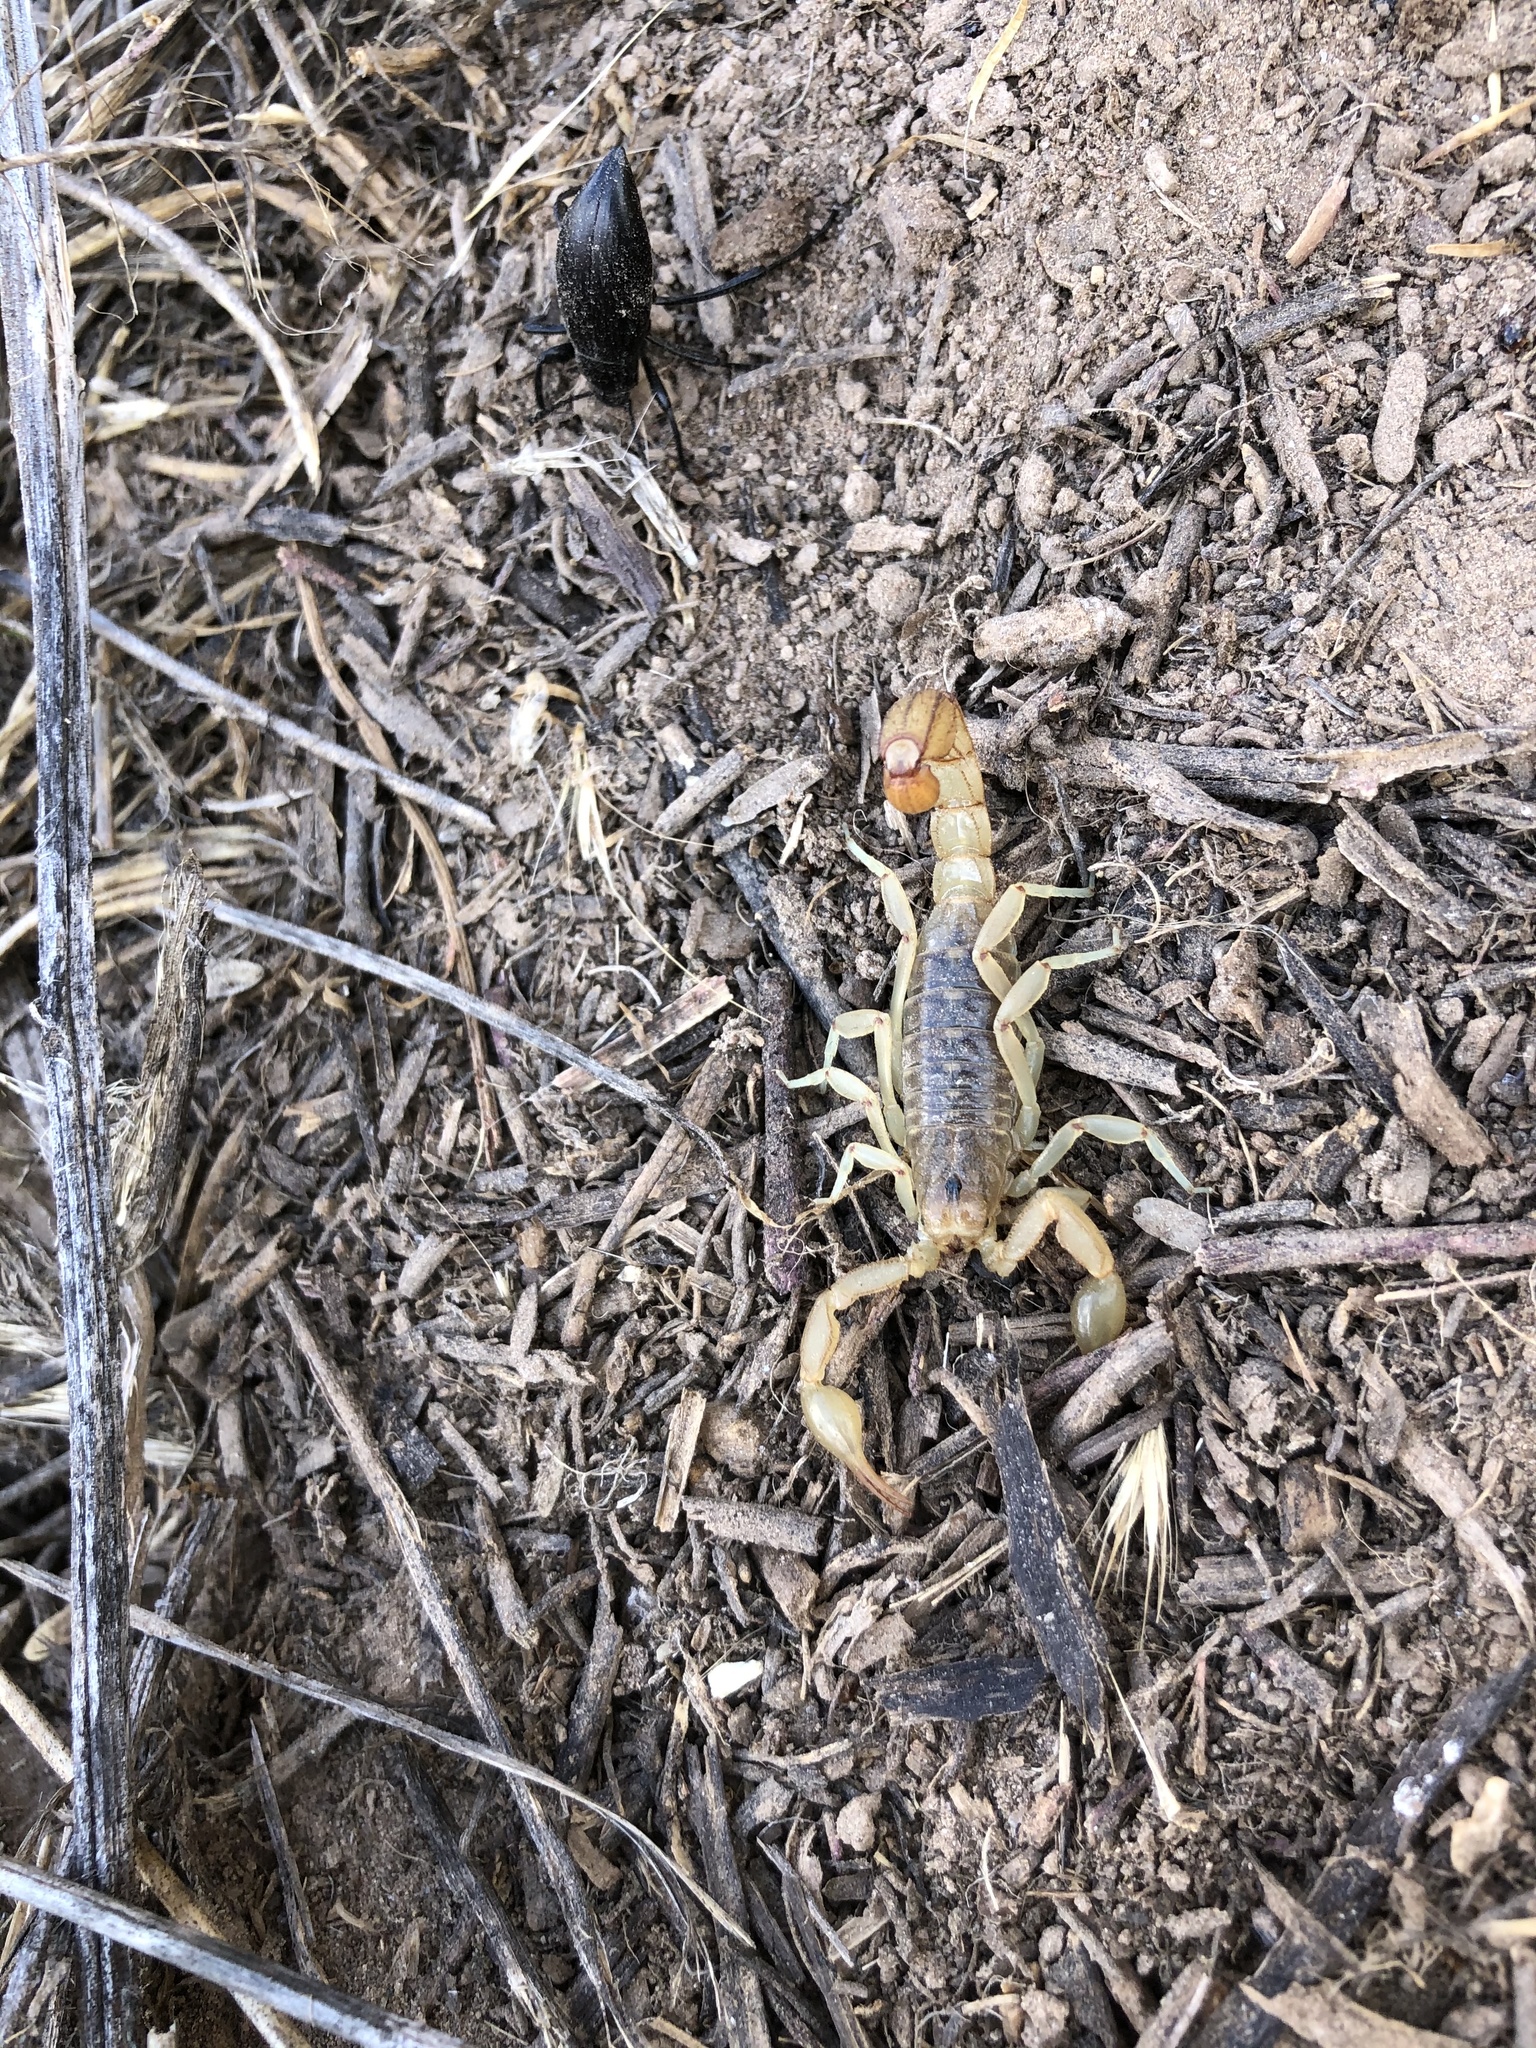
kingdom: Animalia
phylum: Arthropoda
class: Arachnida
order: Scorpiones
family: Vaejovidae
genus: Paravaejovis
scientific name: Paravaejovis spinigerus
